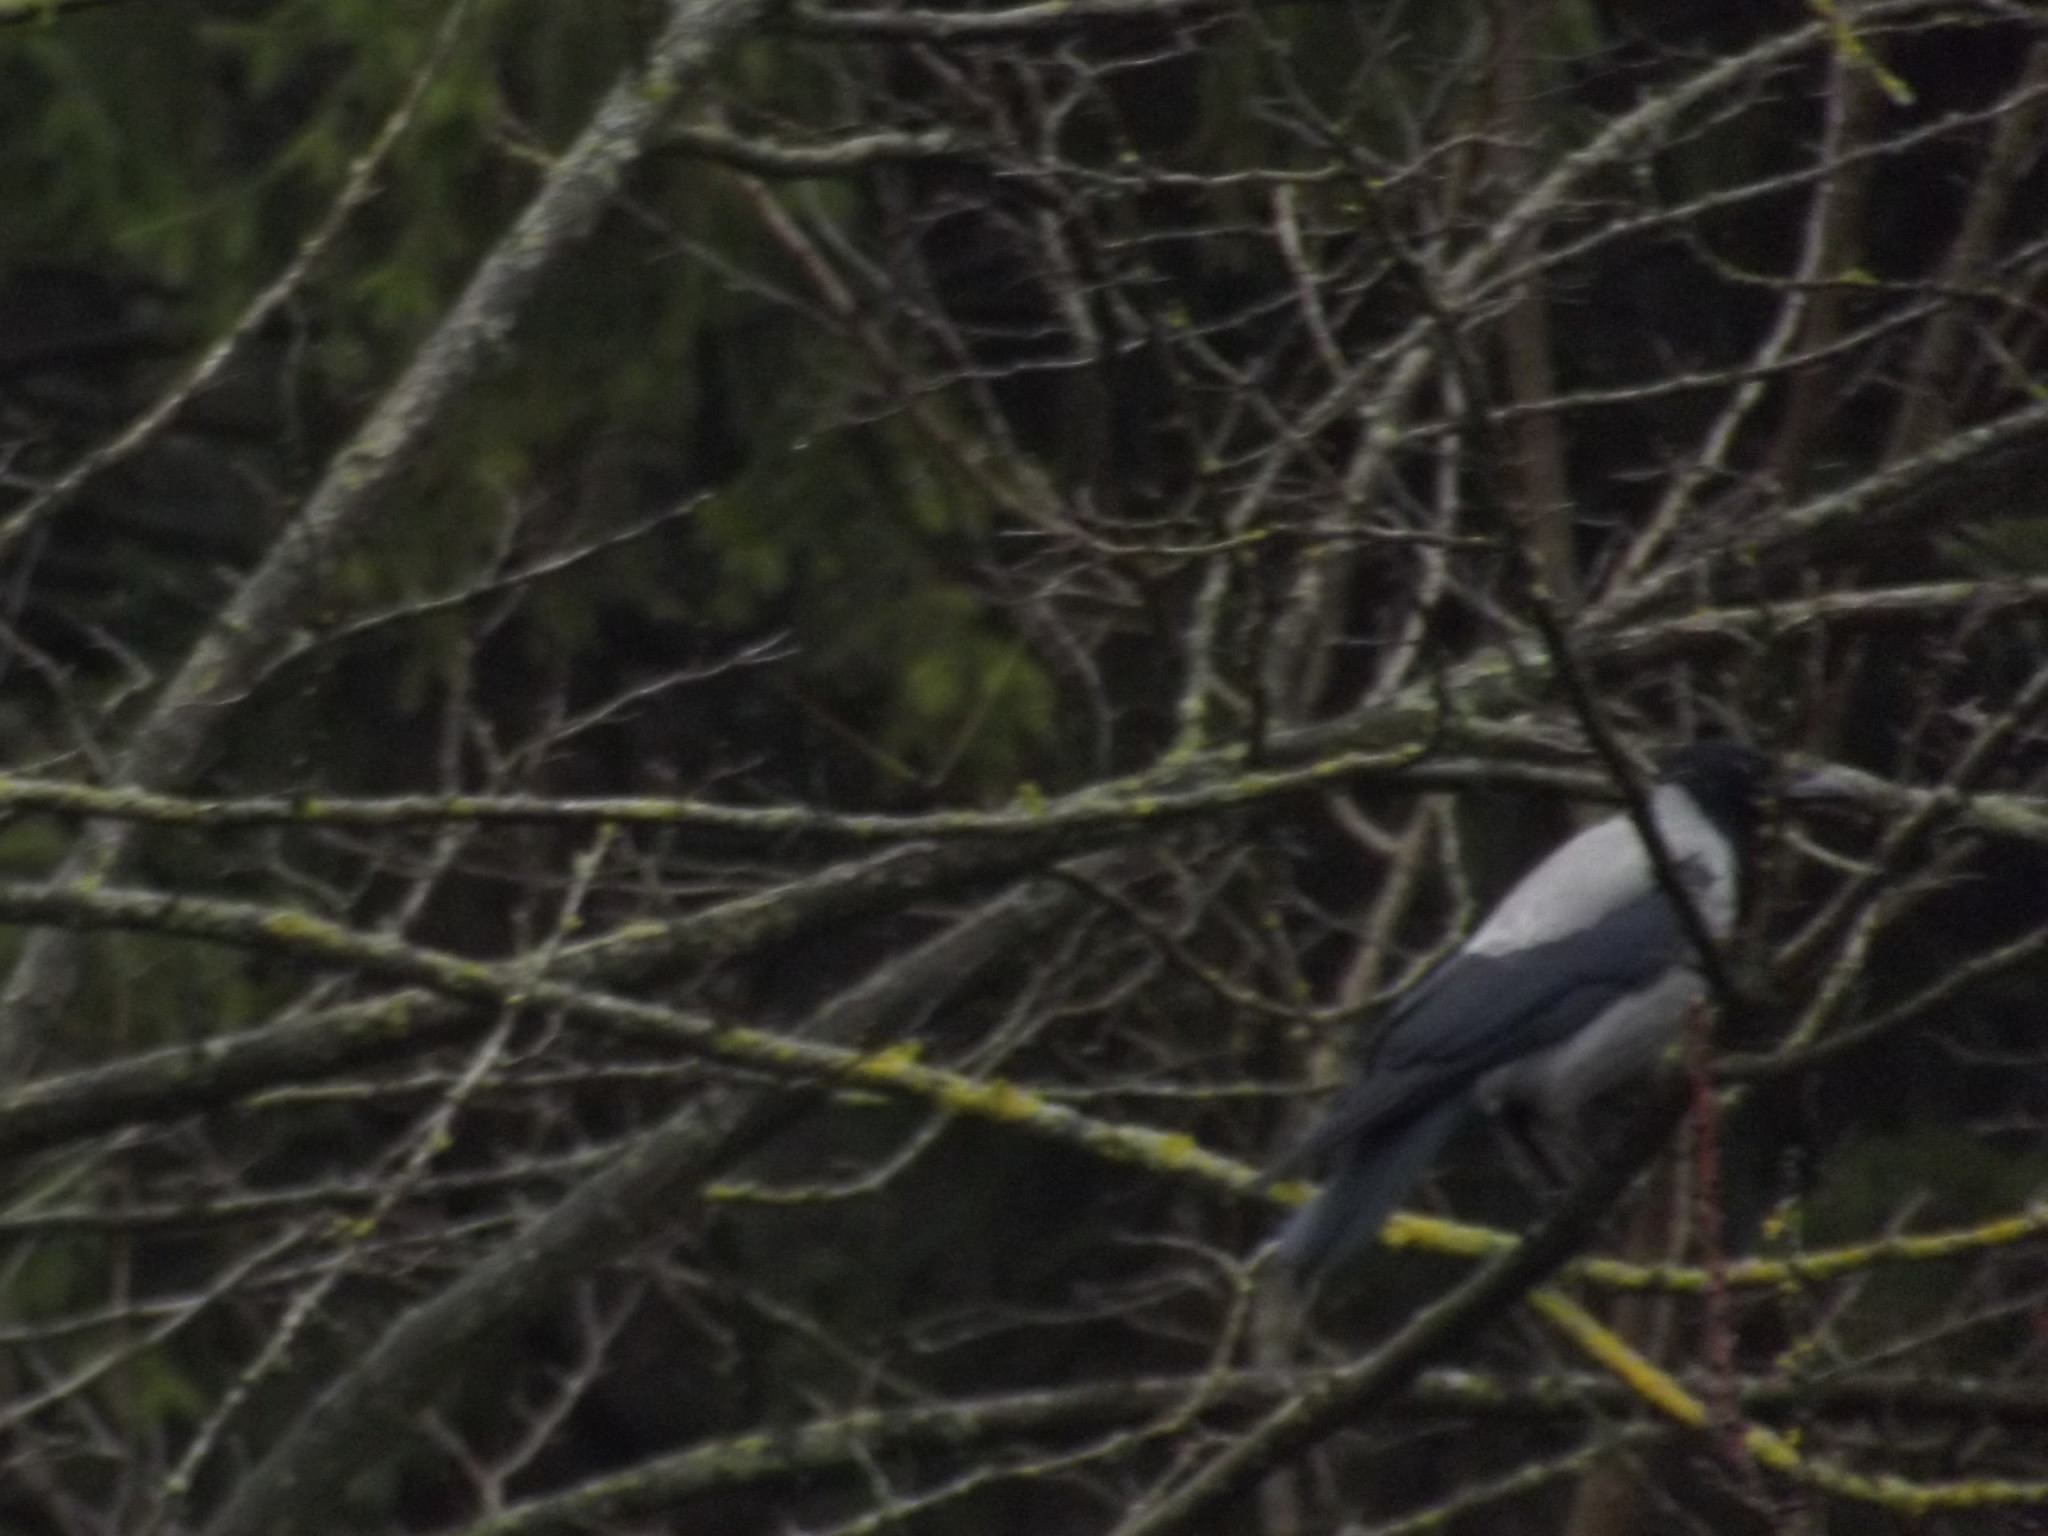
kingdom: Animalia
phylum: Chordata
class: Aves
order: Passeriformes
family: Corvidae
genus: Corvus
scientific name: Corvus cornix
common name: Hooded crow
